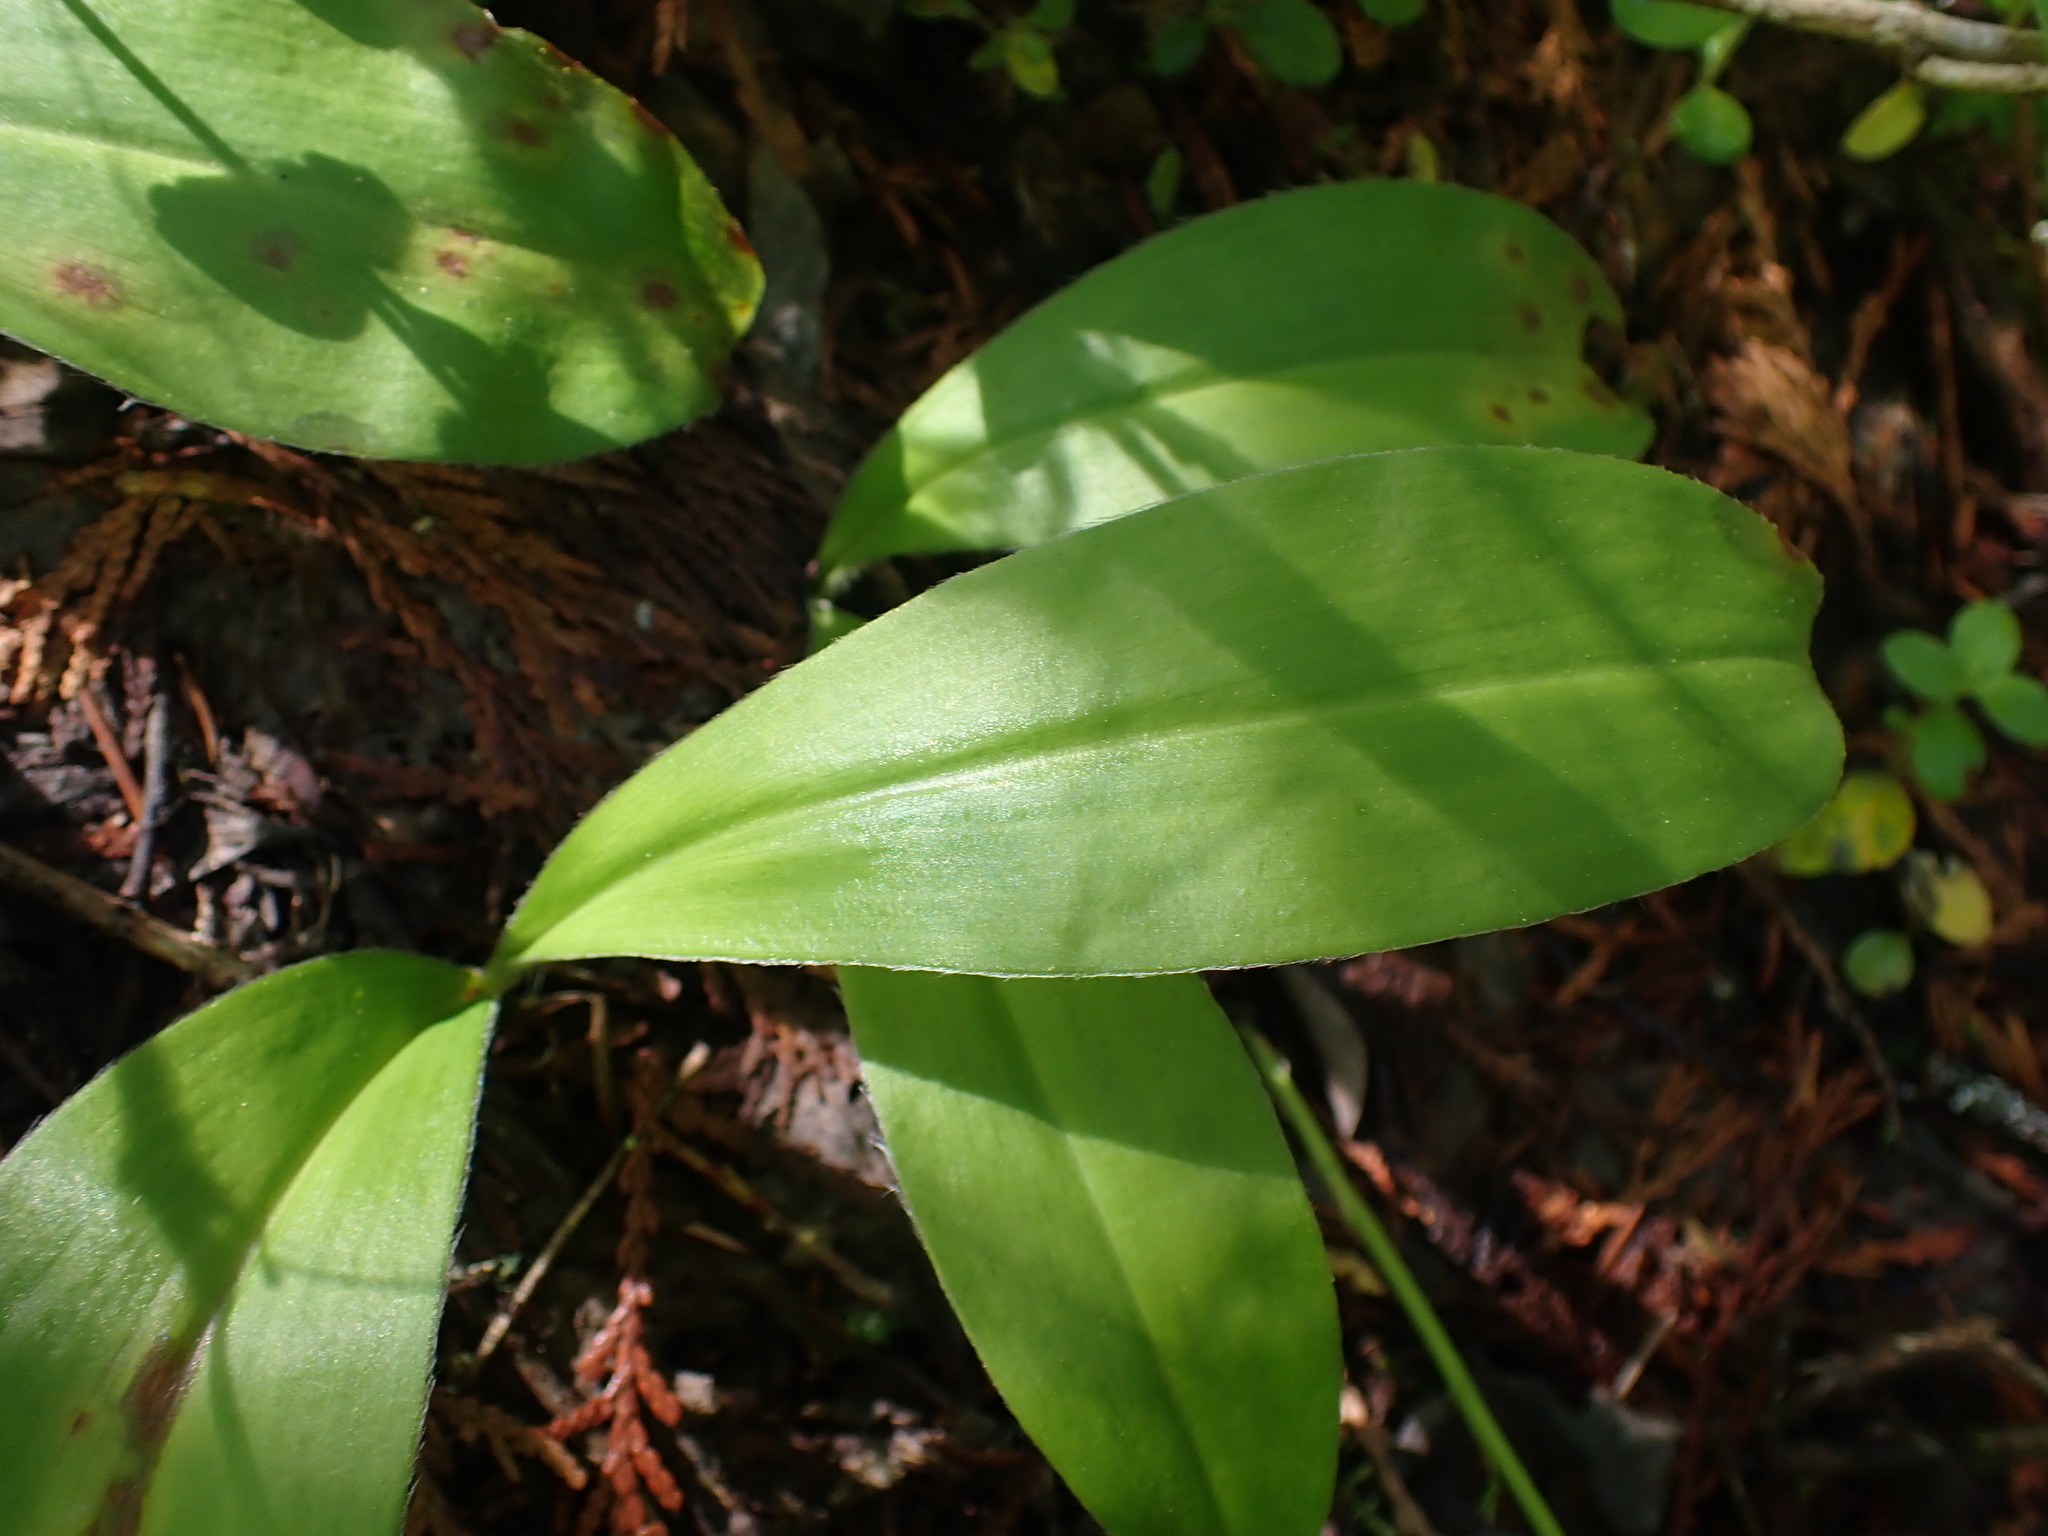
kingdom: Plantae
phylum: Tracheophyta
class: Liliopsida
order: Liliales
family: Liliaceae
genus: Clintonia
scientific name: Clintonia uniflora
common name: Queen's cup
